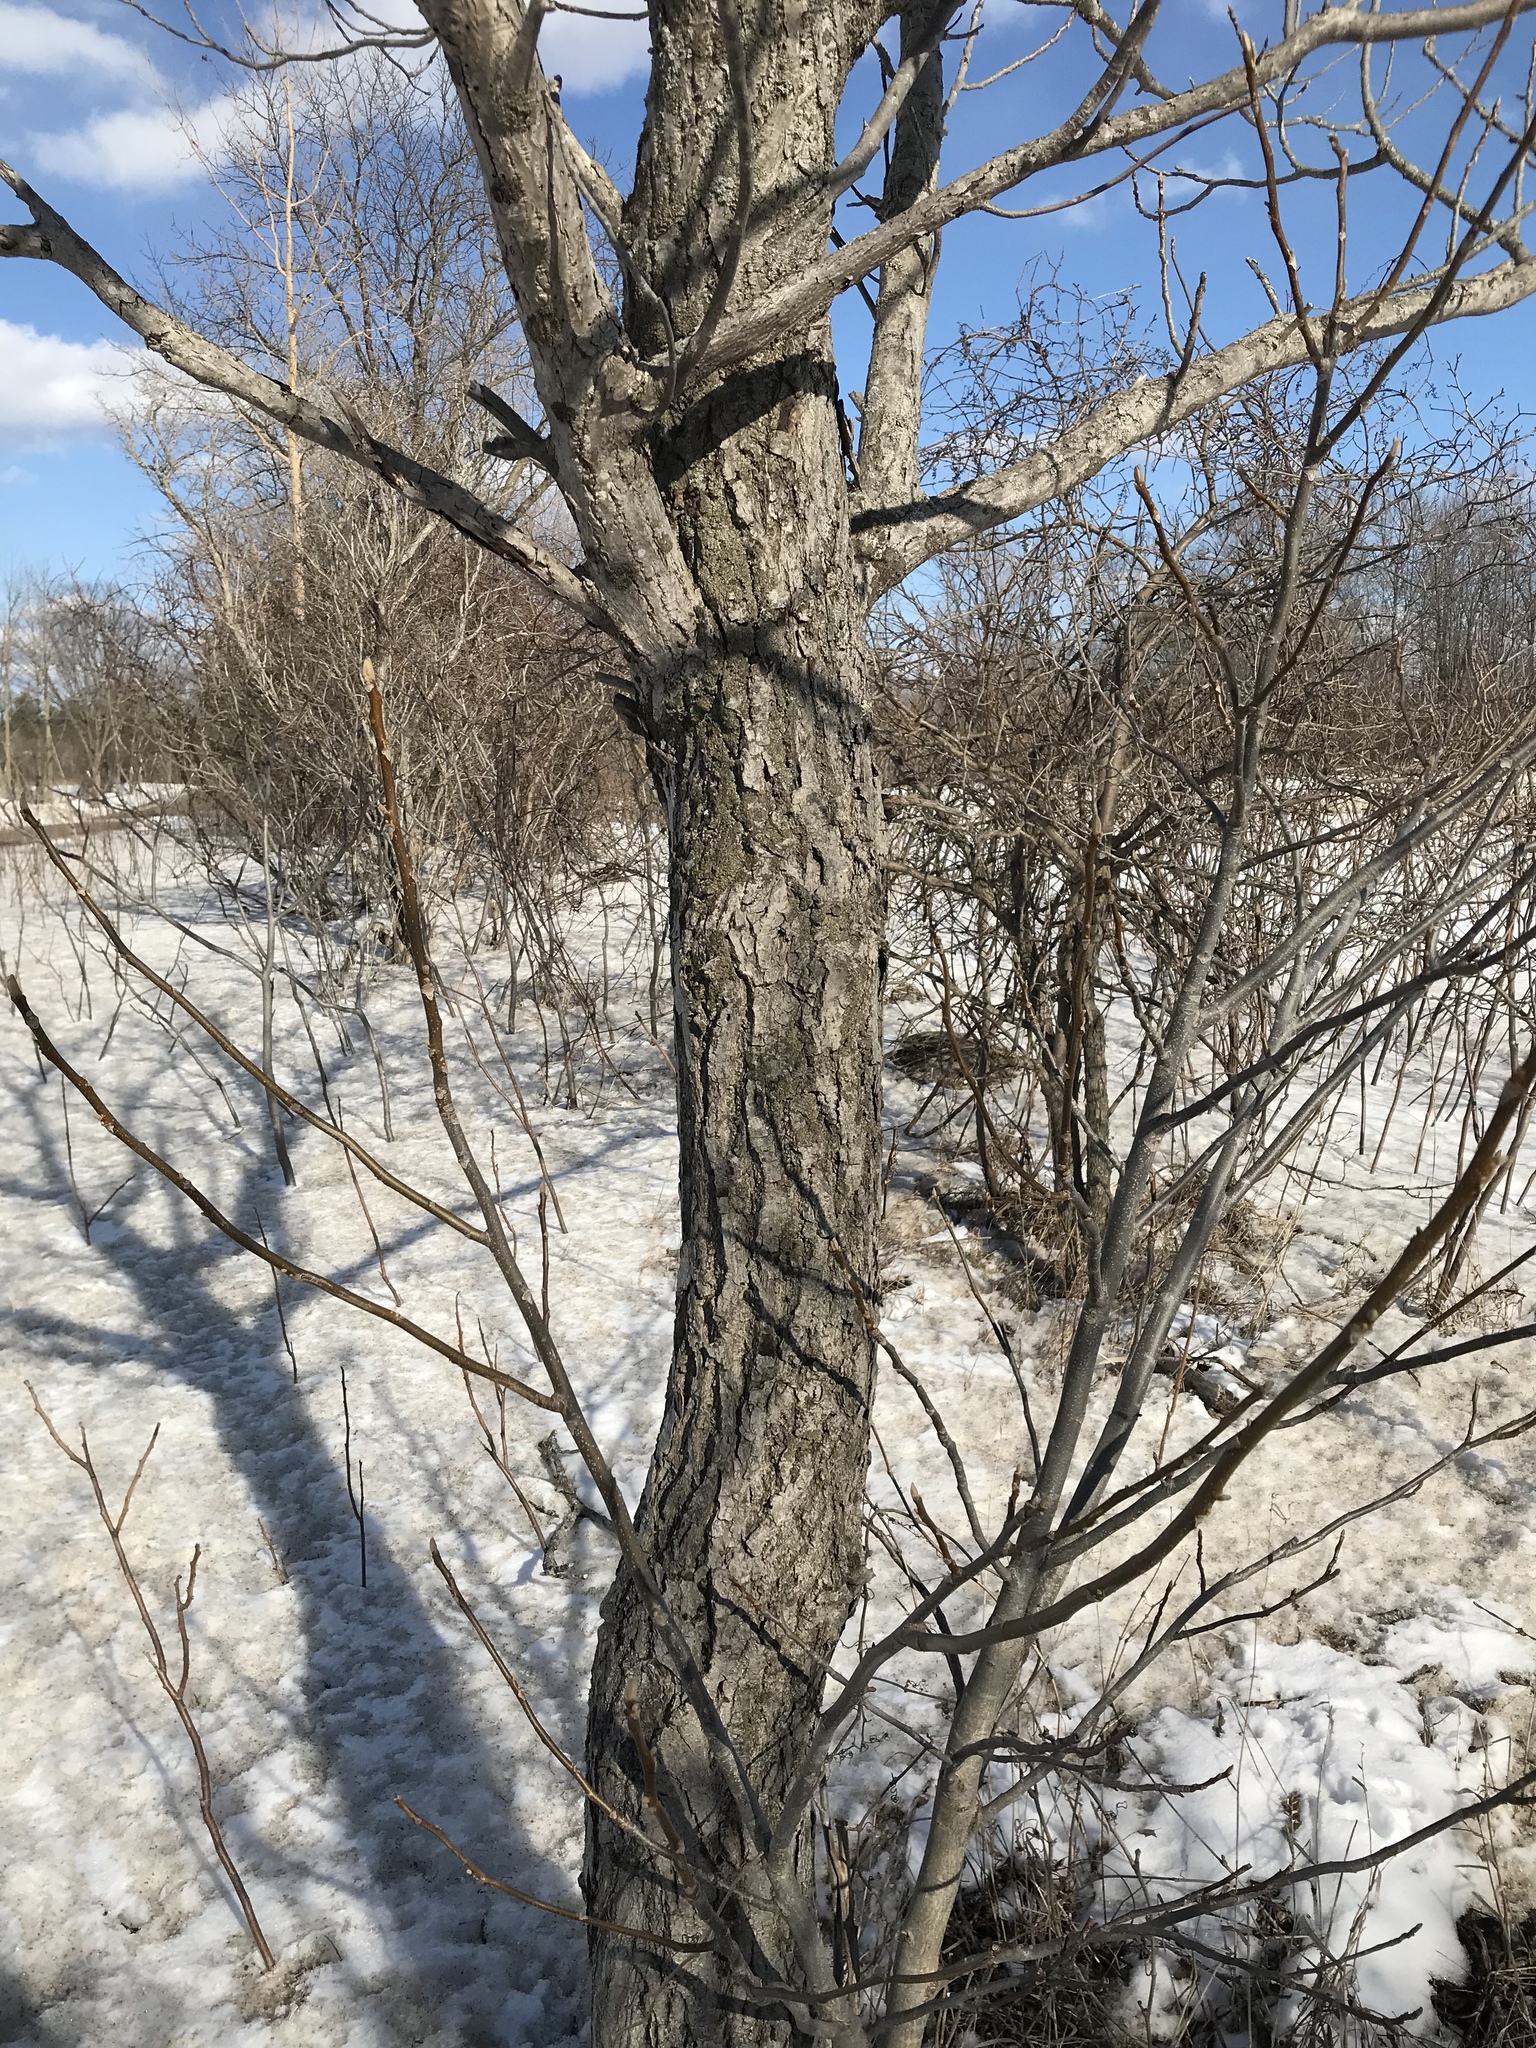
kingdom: Plantae
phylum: Tracheophyta
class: Magnoliopsida
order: Fagales
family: Juglandaceae
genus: Juglans
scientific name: Juglans cinerea
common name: Butternut
